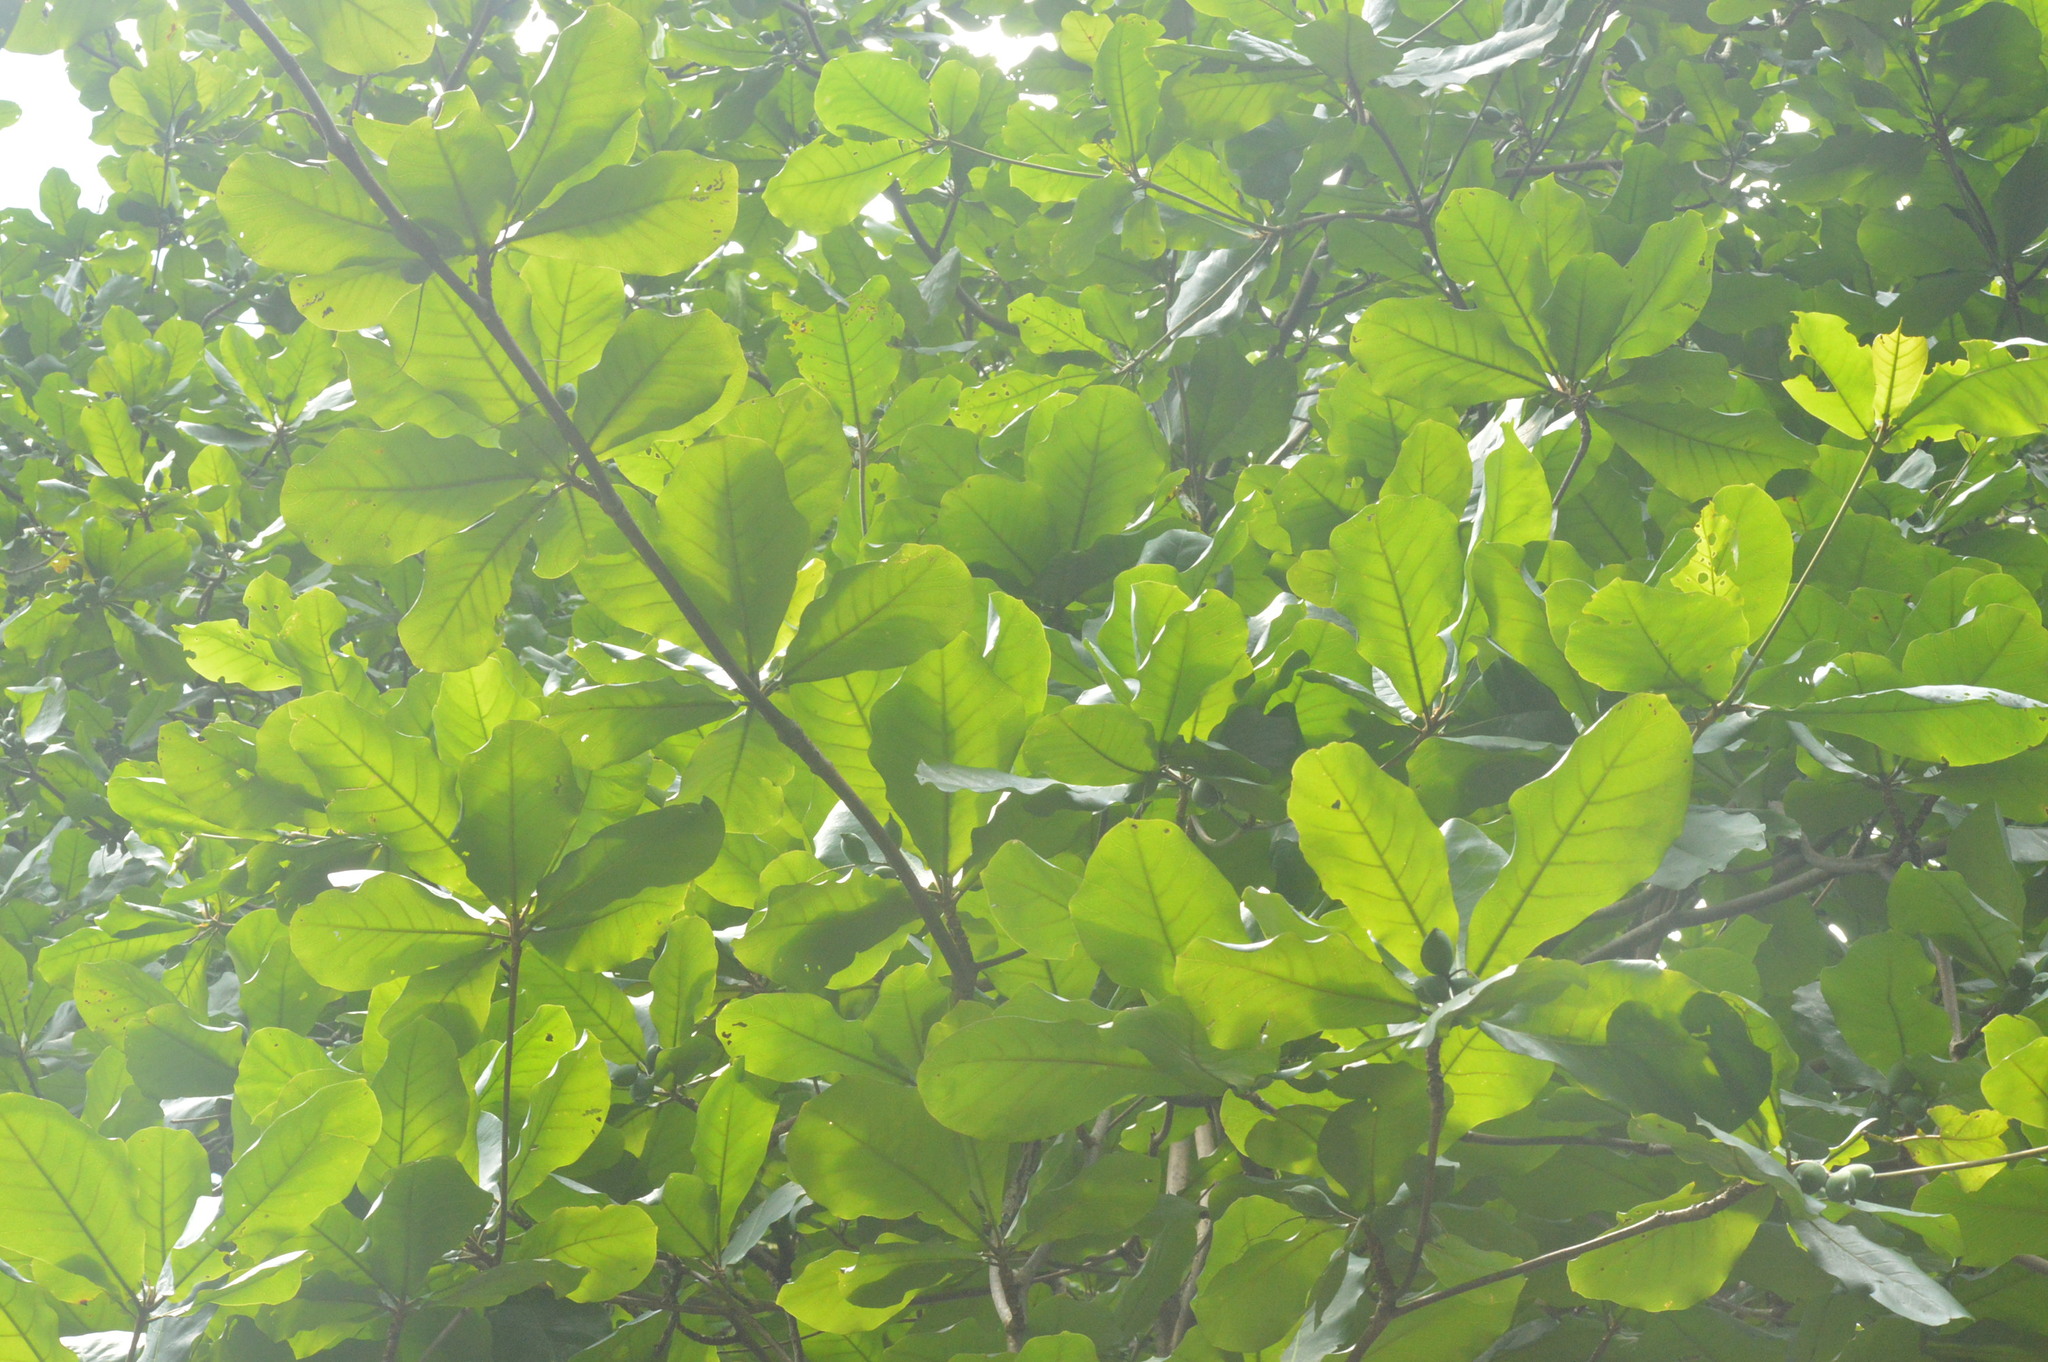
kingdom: Plantae
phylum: Tracheophyta
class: Magnoliopsida
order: Myrtales
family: Combretaceae
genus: Terminalia
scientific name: Terminalia catappa
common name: Tropical almond
